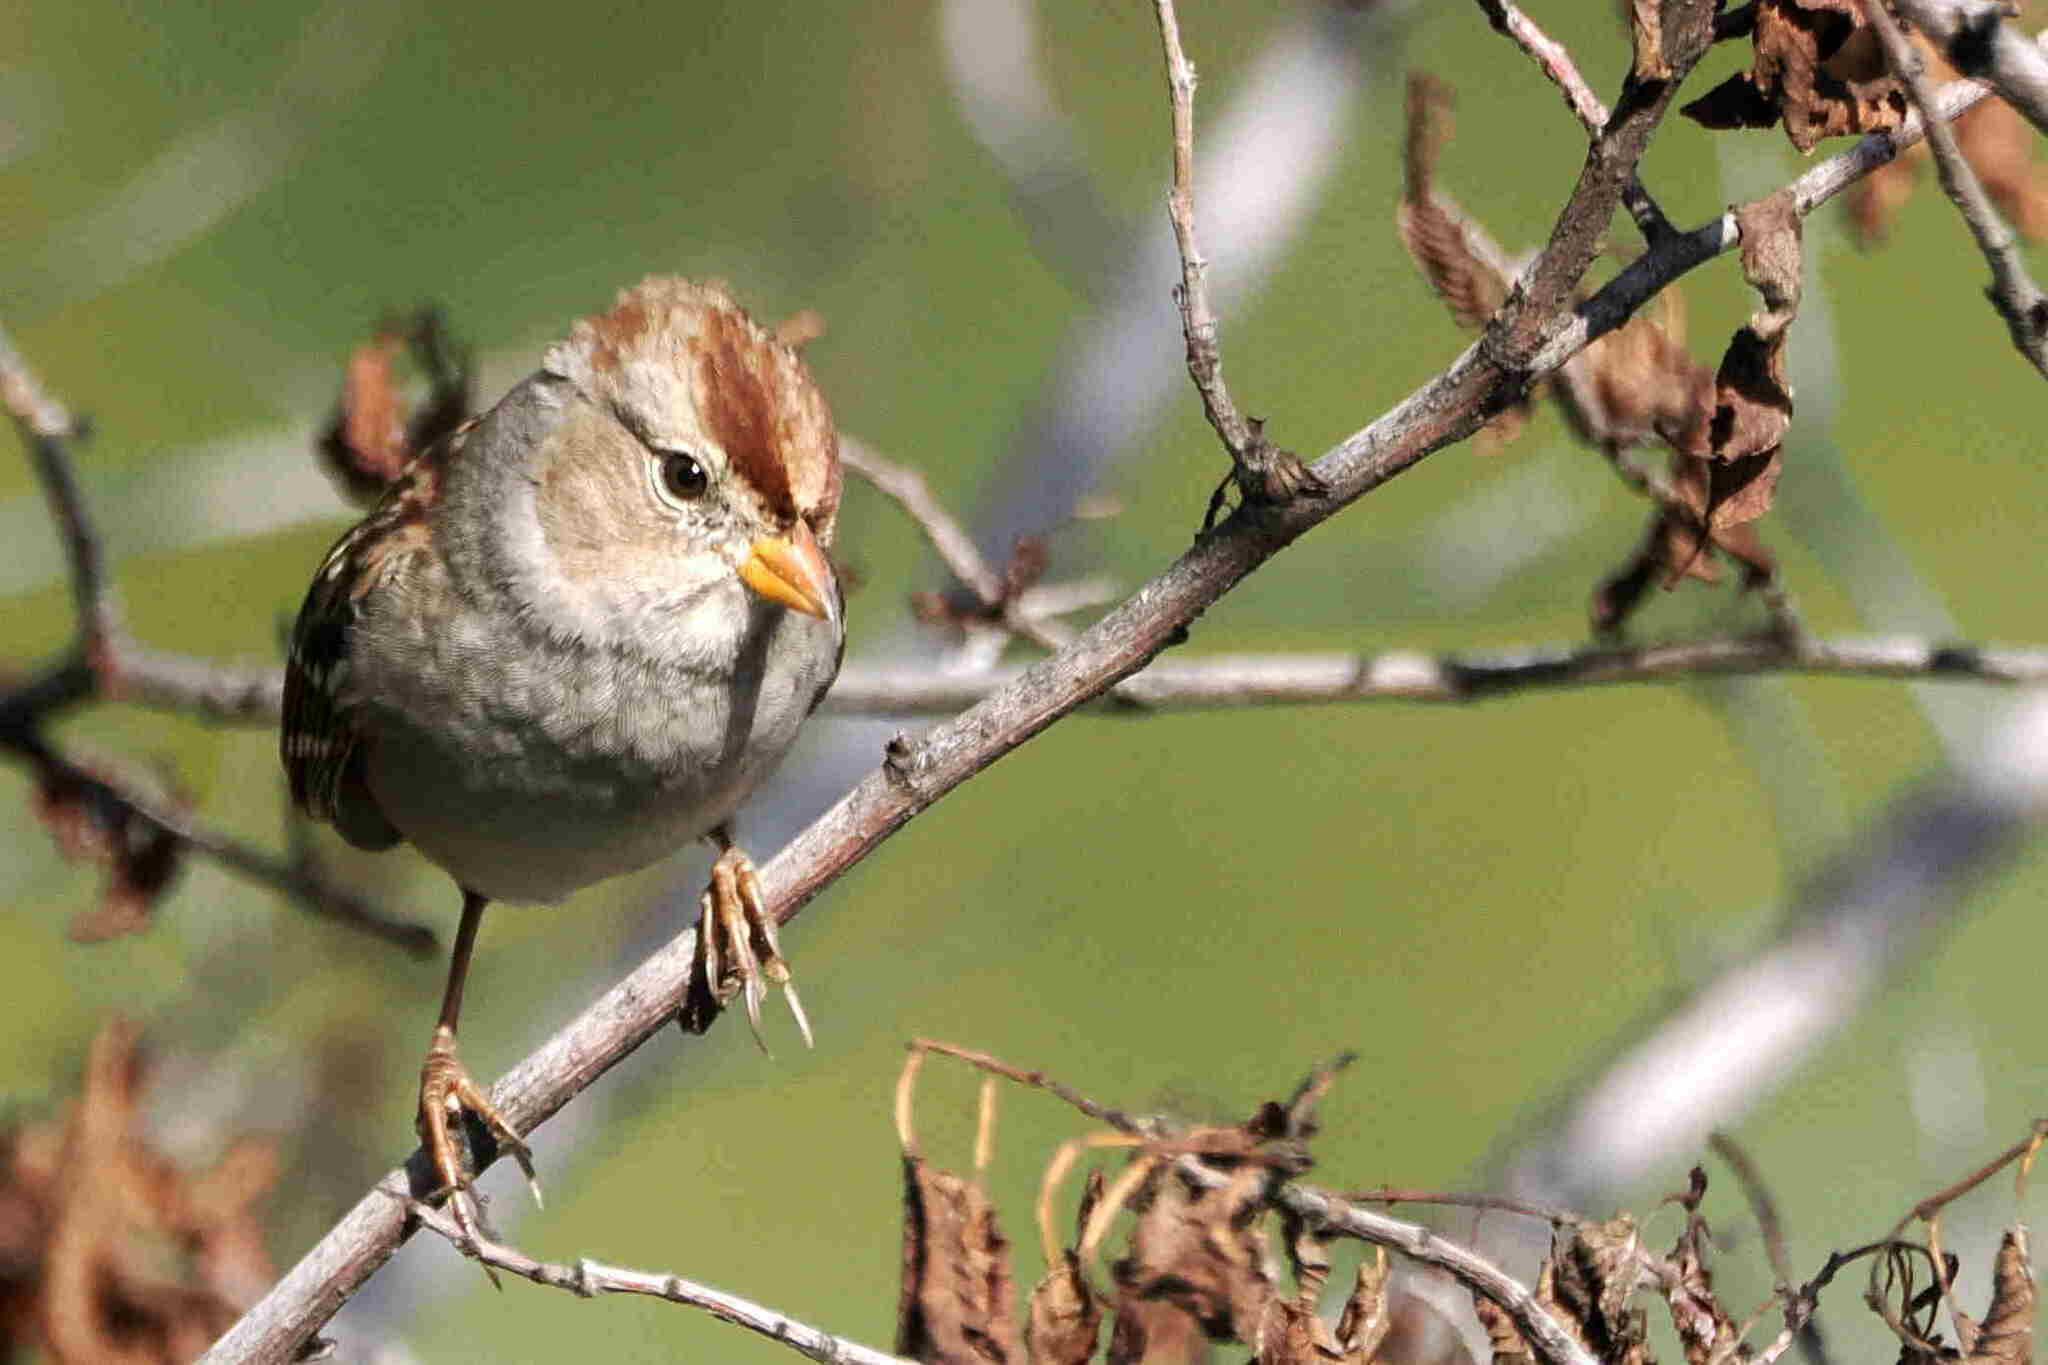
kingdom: Animalia
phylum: Chordata
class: Aves
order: Passeriformes
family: Passerellidae
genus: Zonotrichia
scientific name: Zonotrichia leucophrys
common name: White-crowned sparrow
